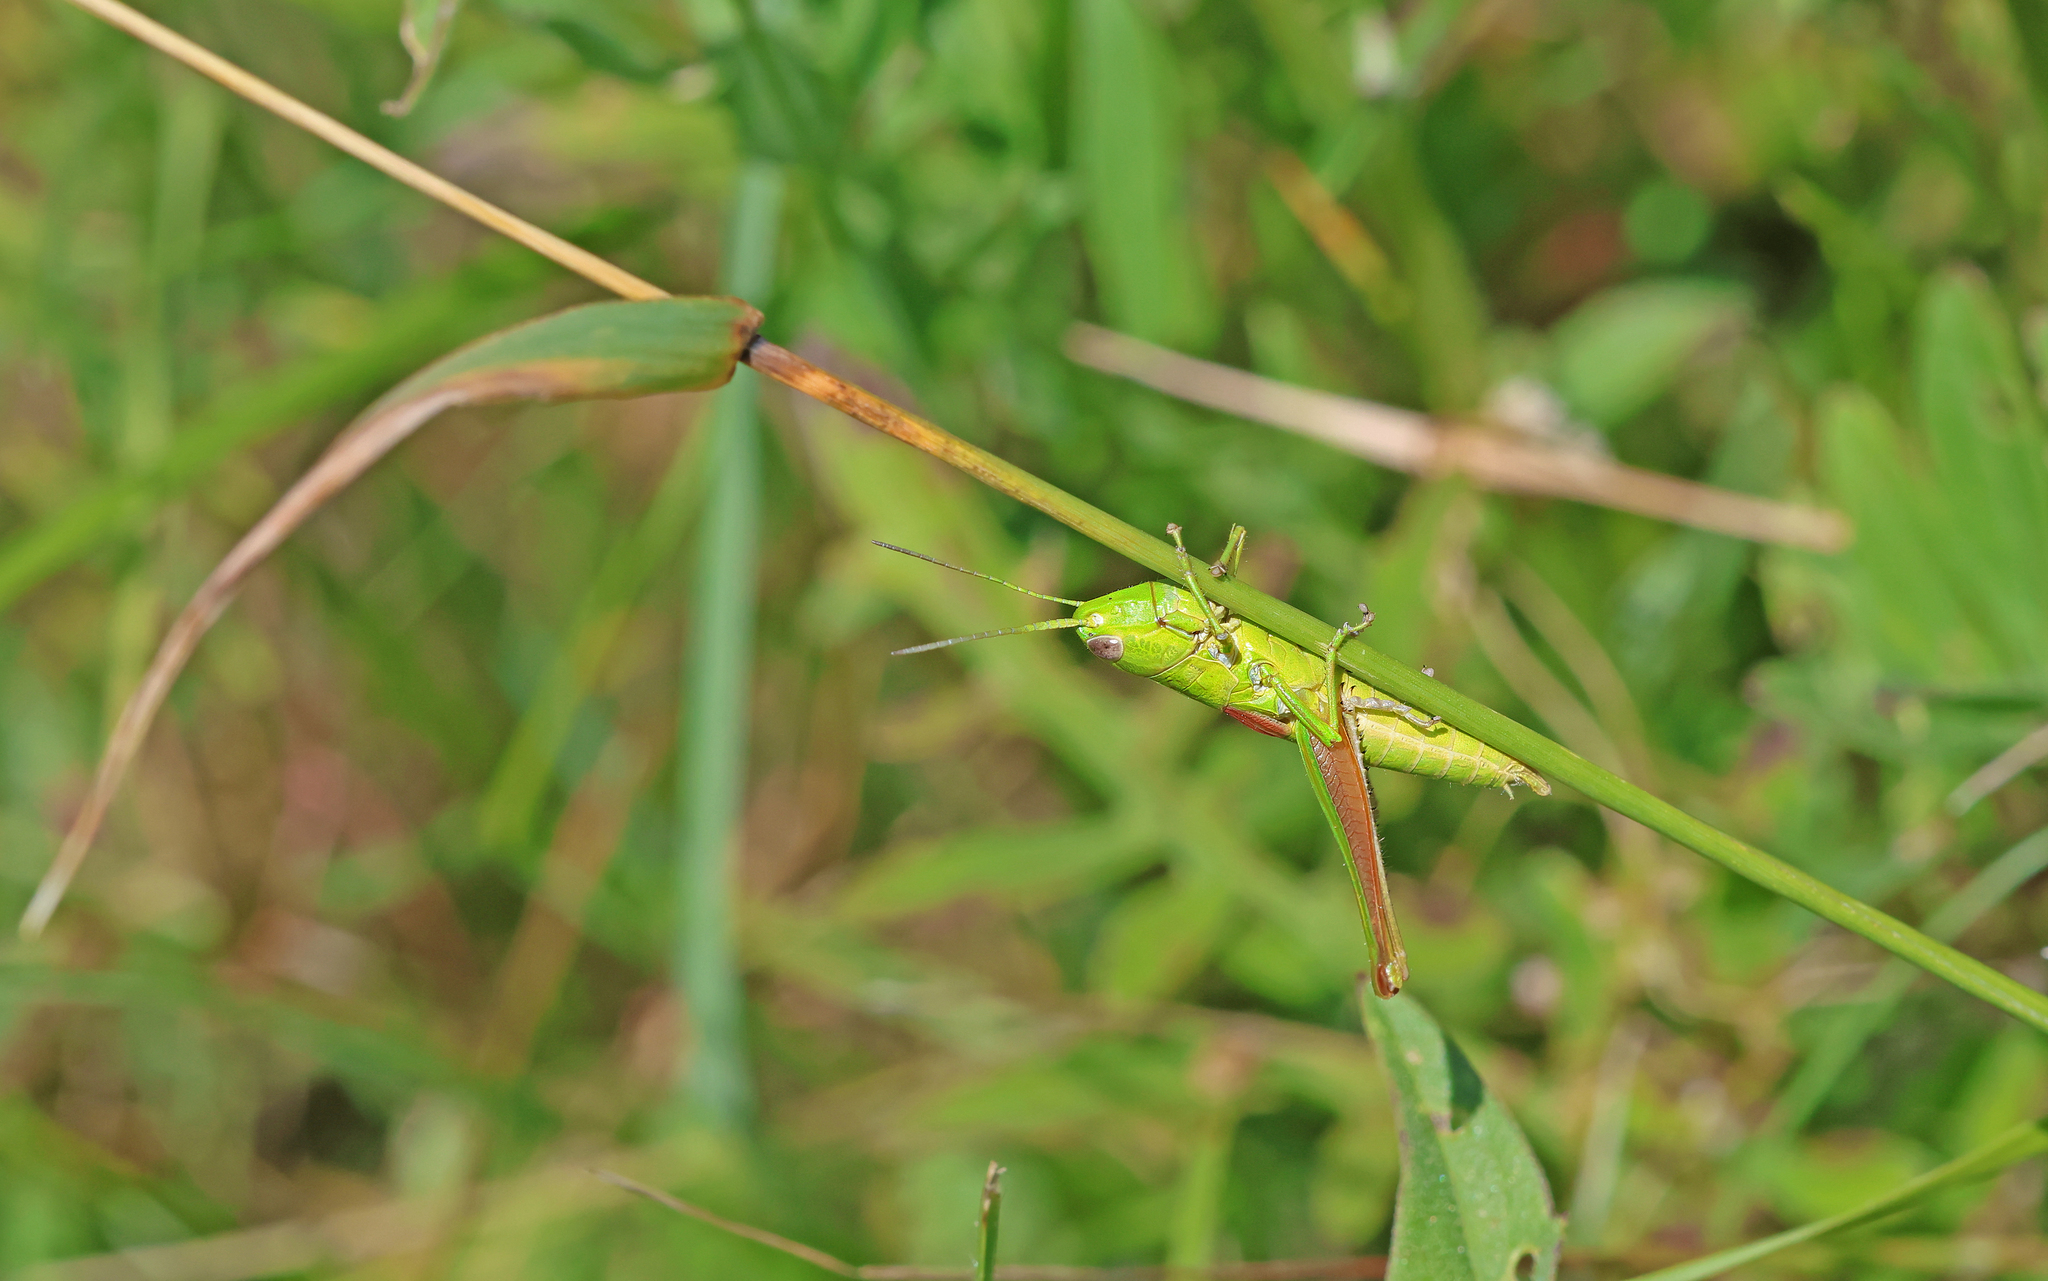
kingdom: Animalia
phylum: Arthropoda
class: Insecta
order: Orthoptera
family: Acrididae
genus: Euthystira
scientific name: Euthystira brachyptera
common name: Small gold grasshopper
